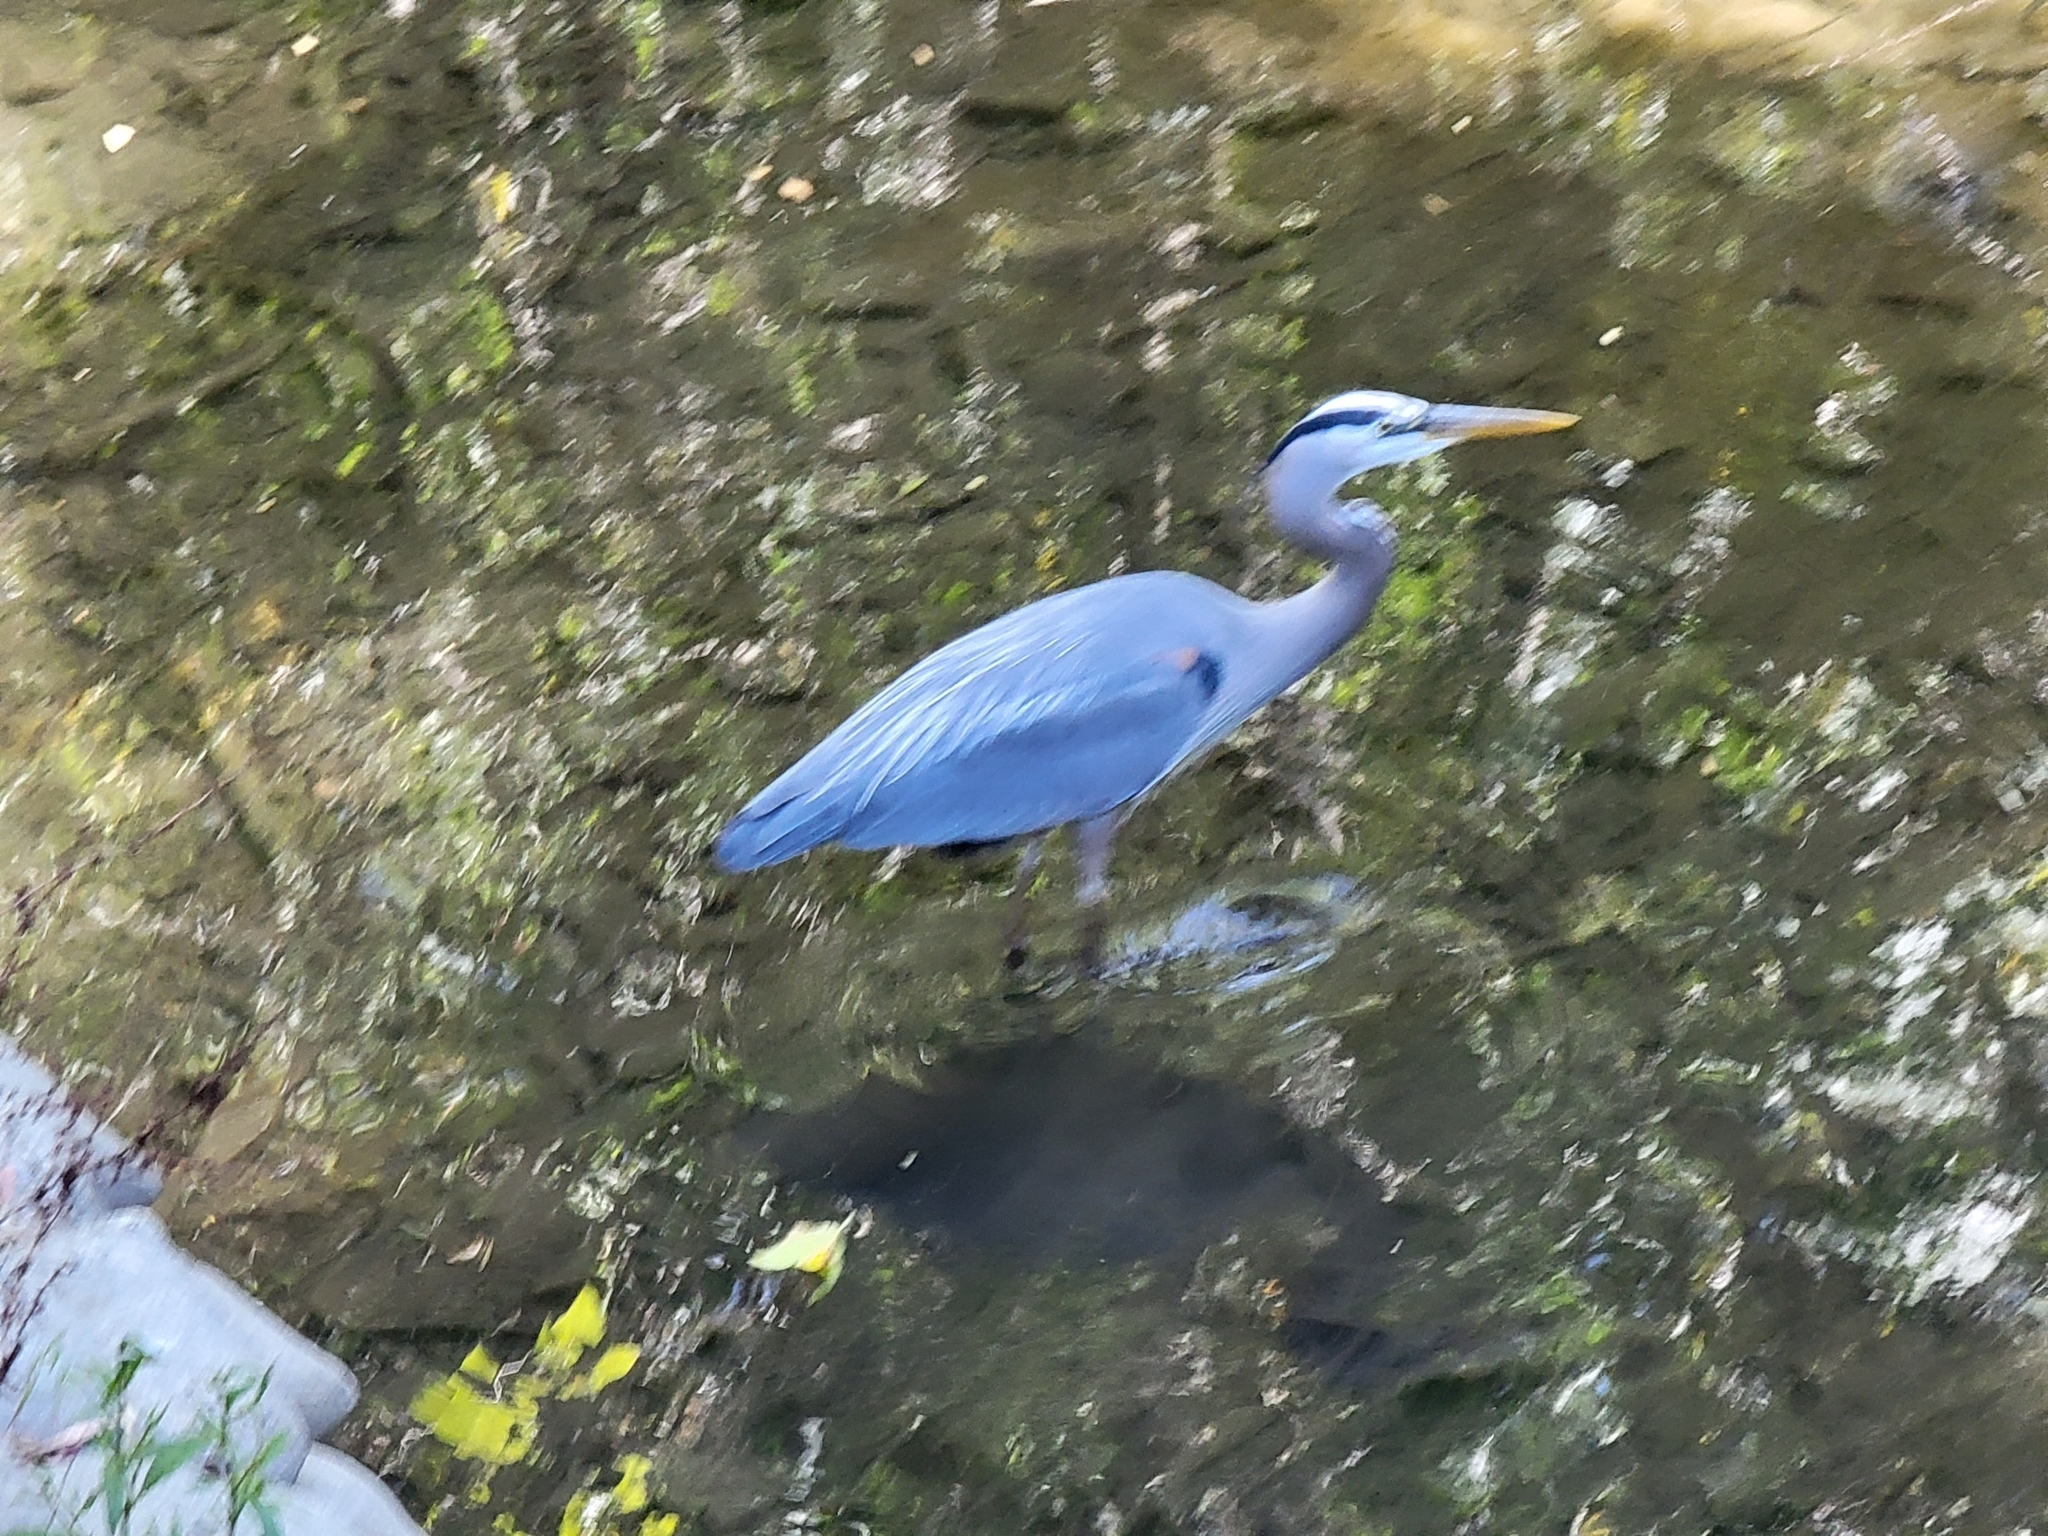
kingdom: Animalia
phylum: Chordata
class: Aves
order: Pelecaniformes
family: Ardeidae
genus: Ardea
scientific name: Ardea herodias
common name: Great blue heron
